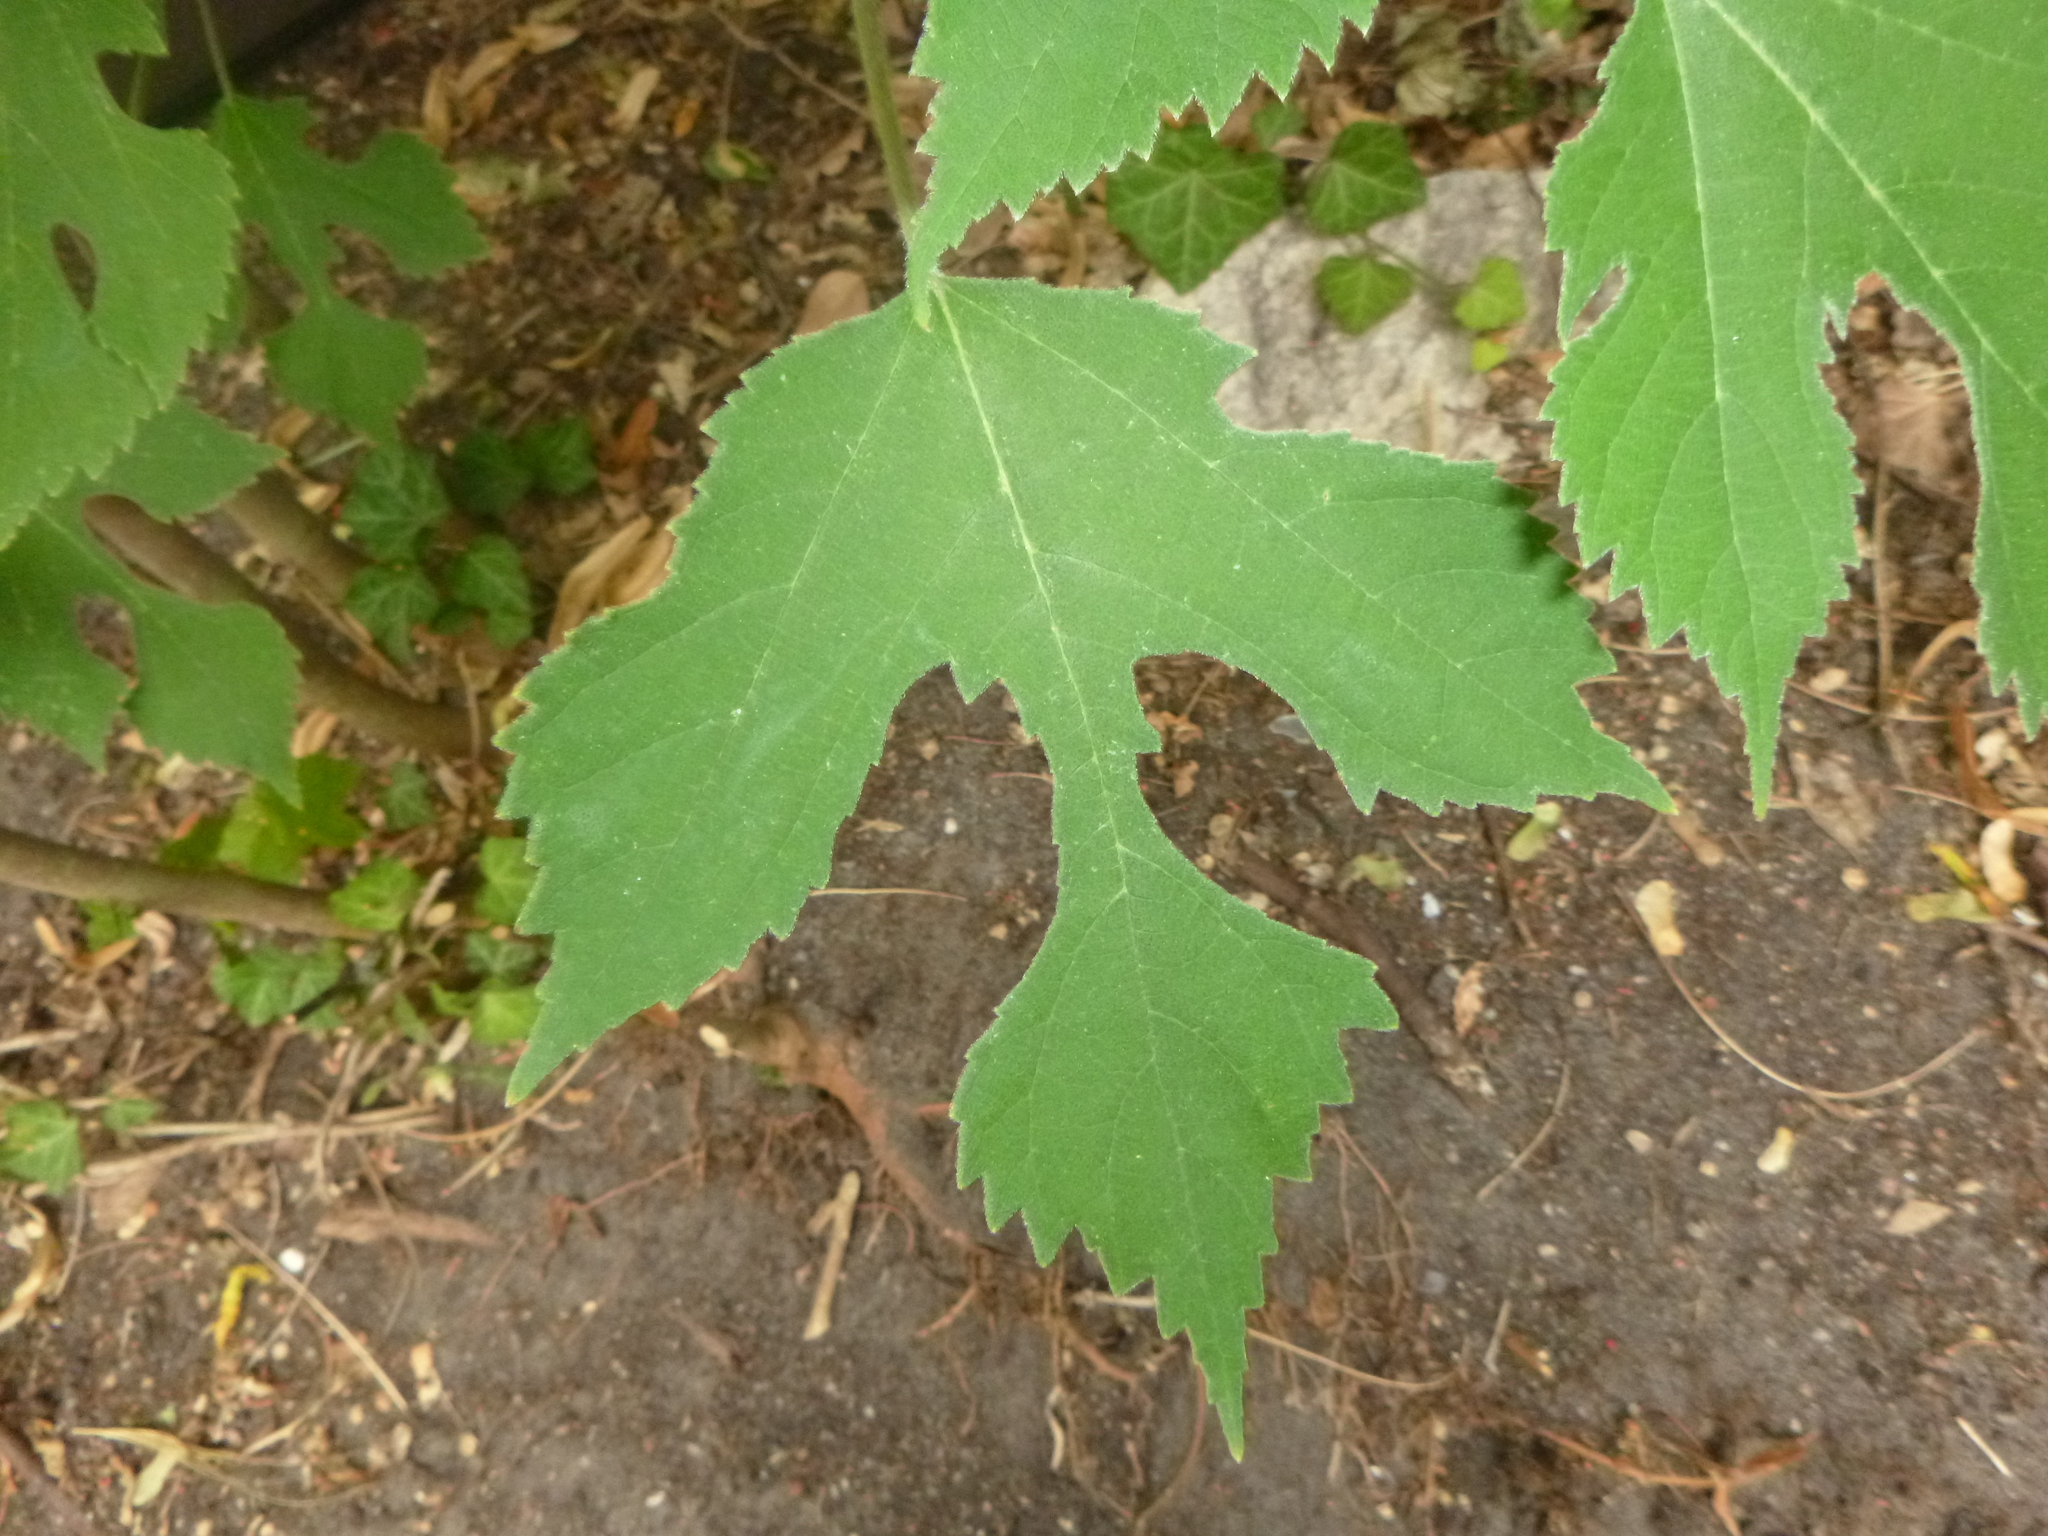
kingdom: Plantae
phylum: Tracheophyta
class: Magnoliopsida
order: Rosales
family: Moraceae
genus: Broussonetia
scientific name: Broussonetia papyrifera
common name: Paper mulberry
